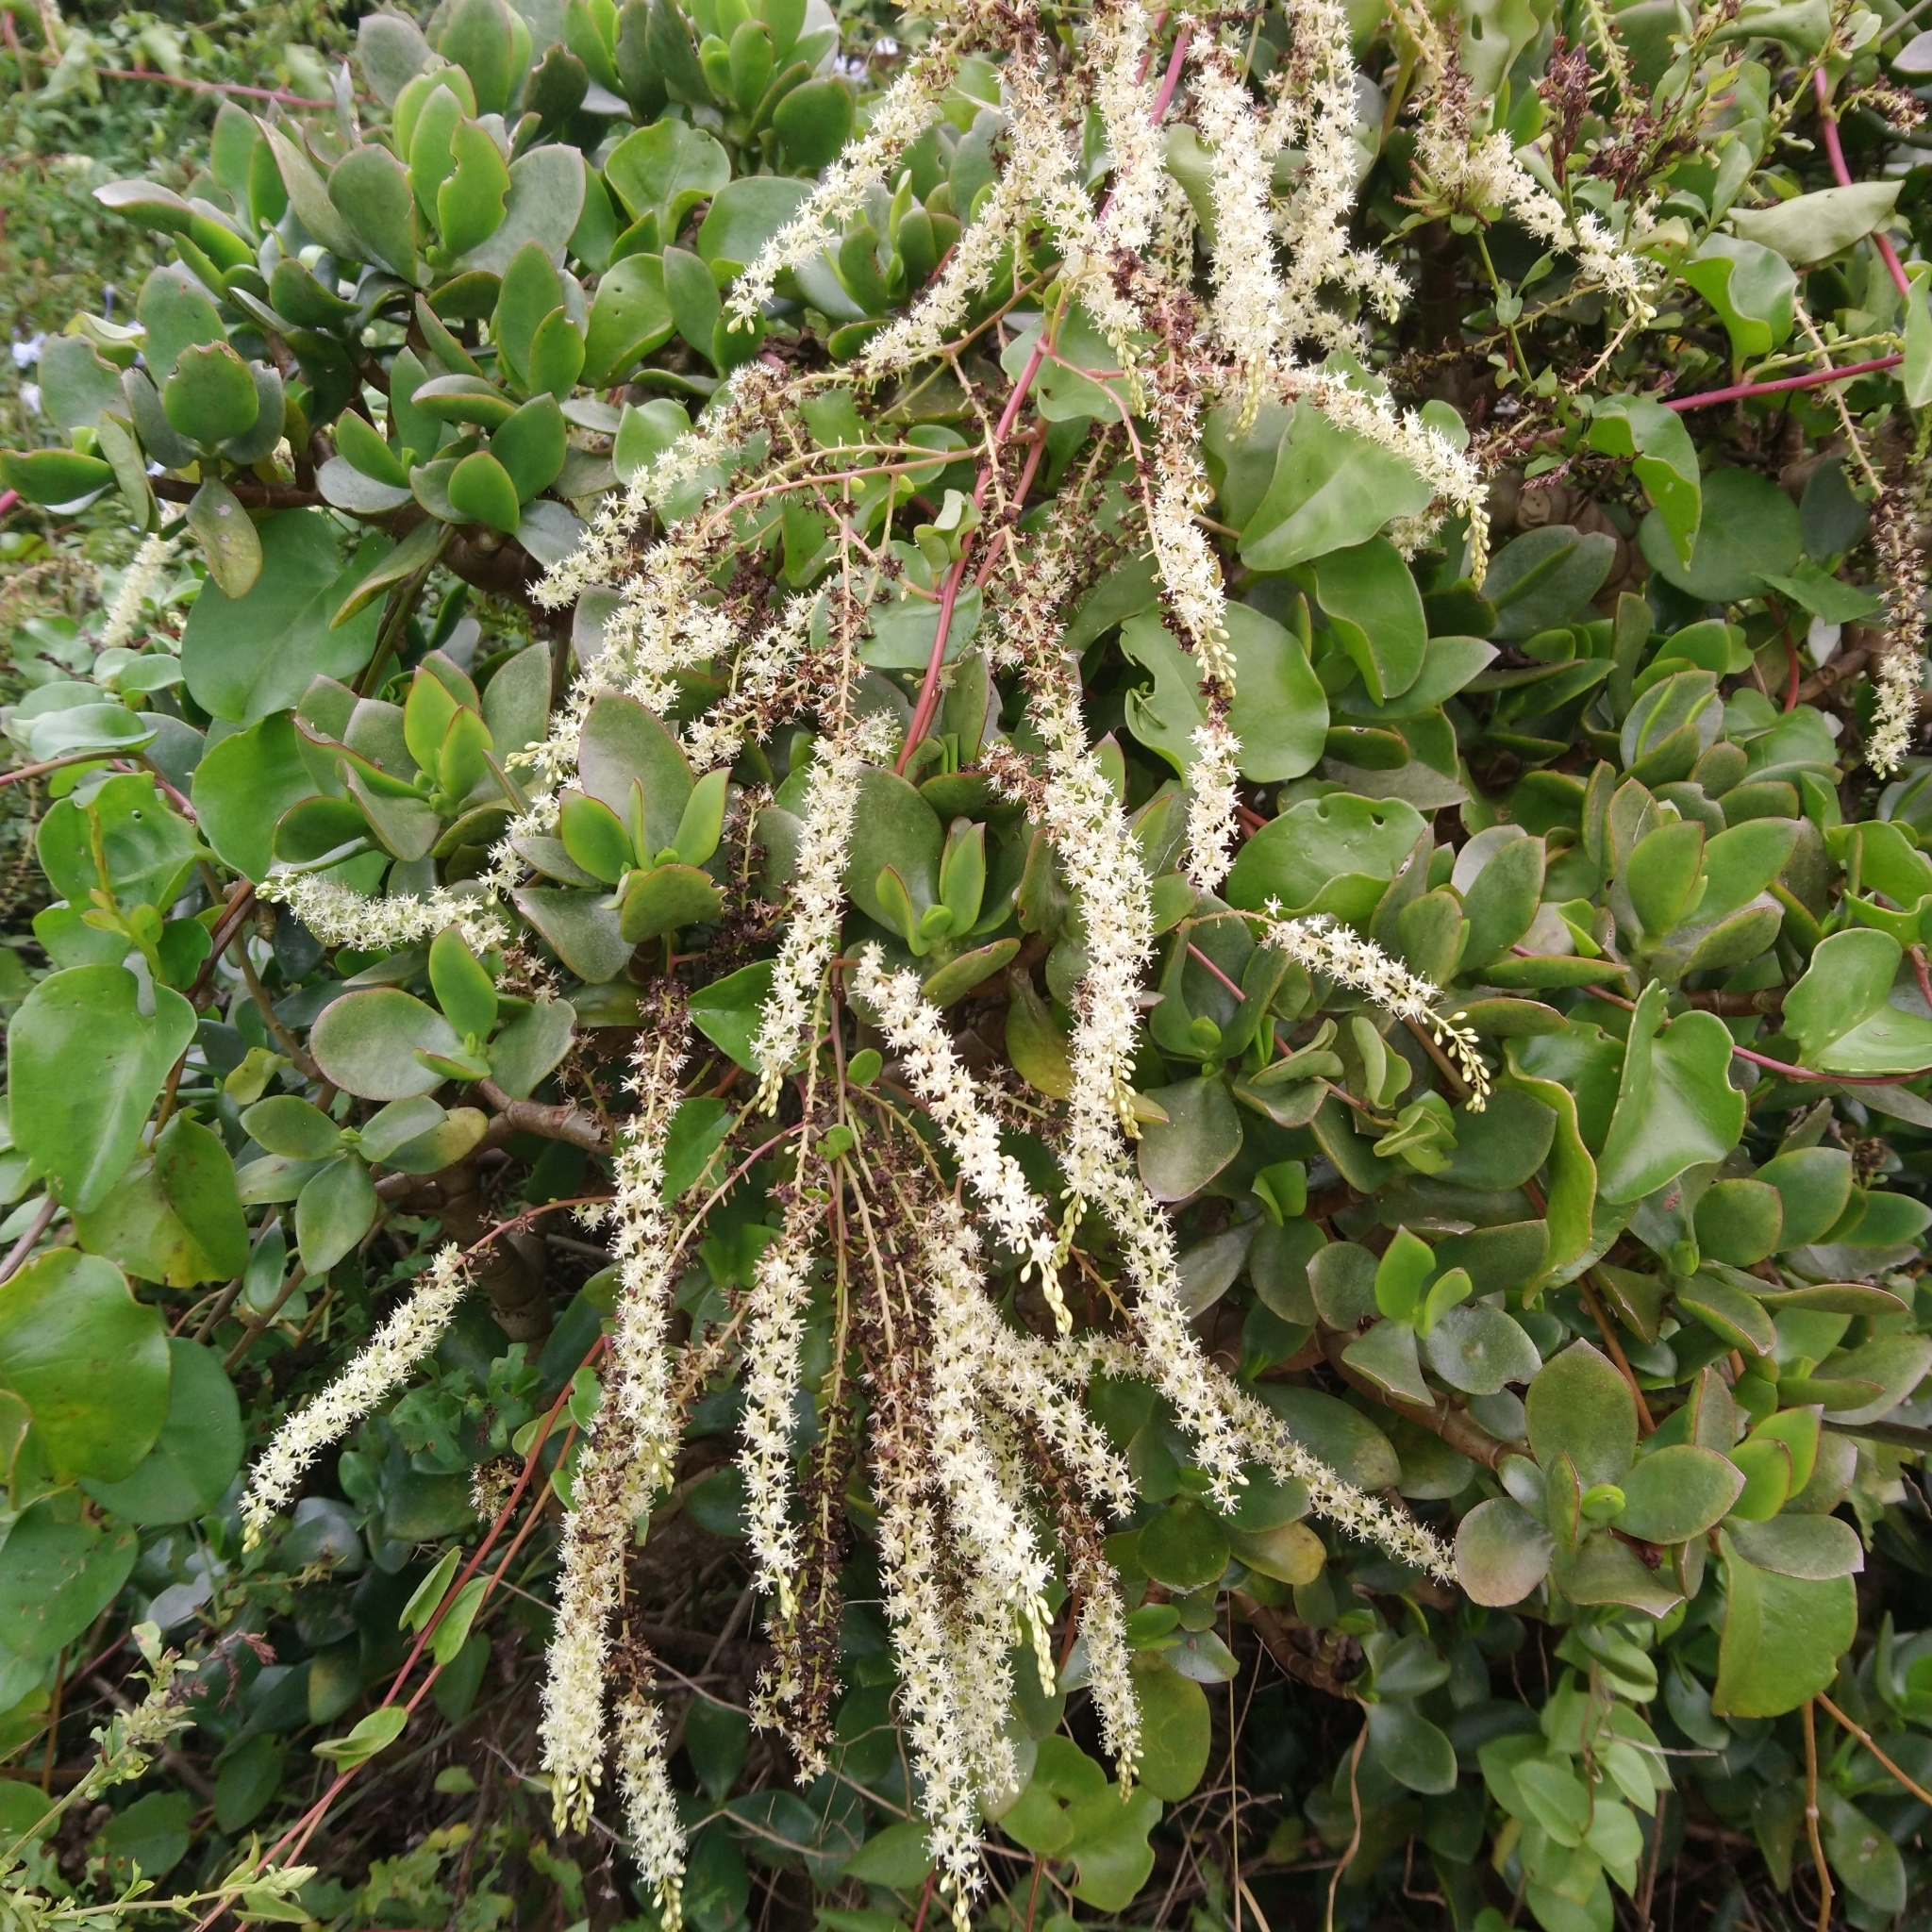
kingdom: Plantae
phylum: Tracheophyta
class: Magnoliopsida
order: Caryophyllales
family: Basellaceae
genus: Anredera
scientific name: Anredera cordifolia
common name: Heartleaf madeiravine
